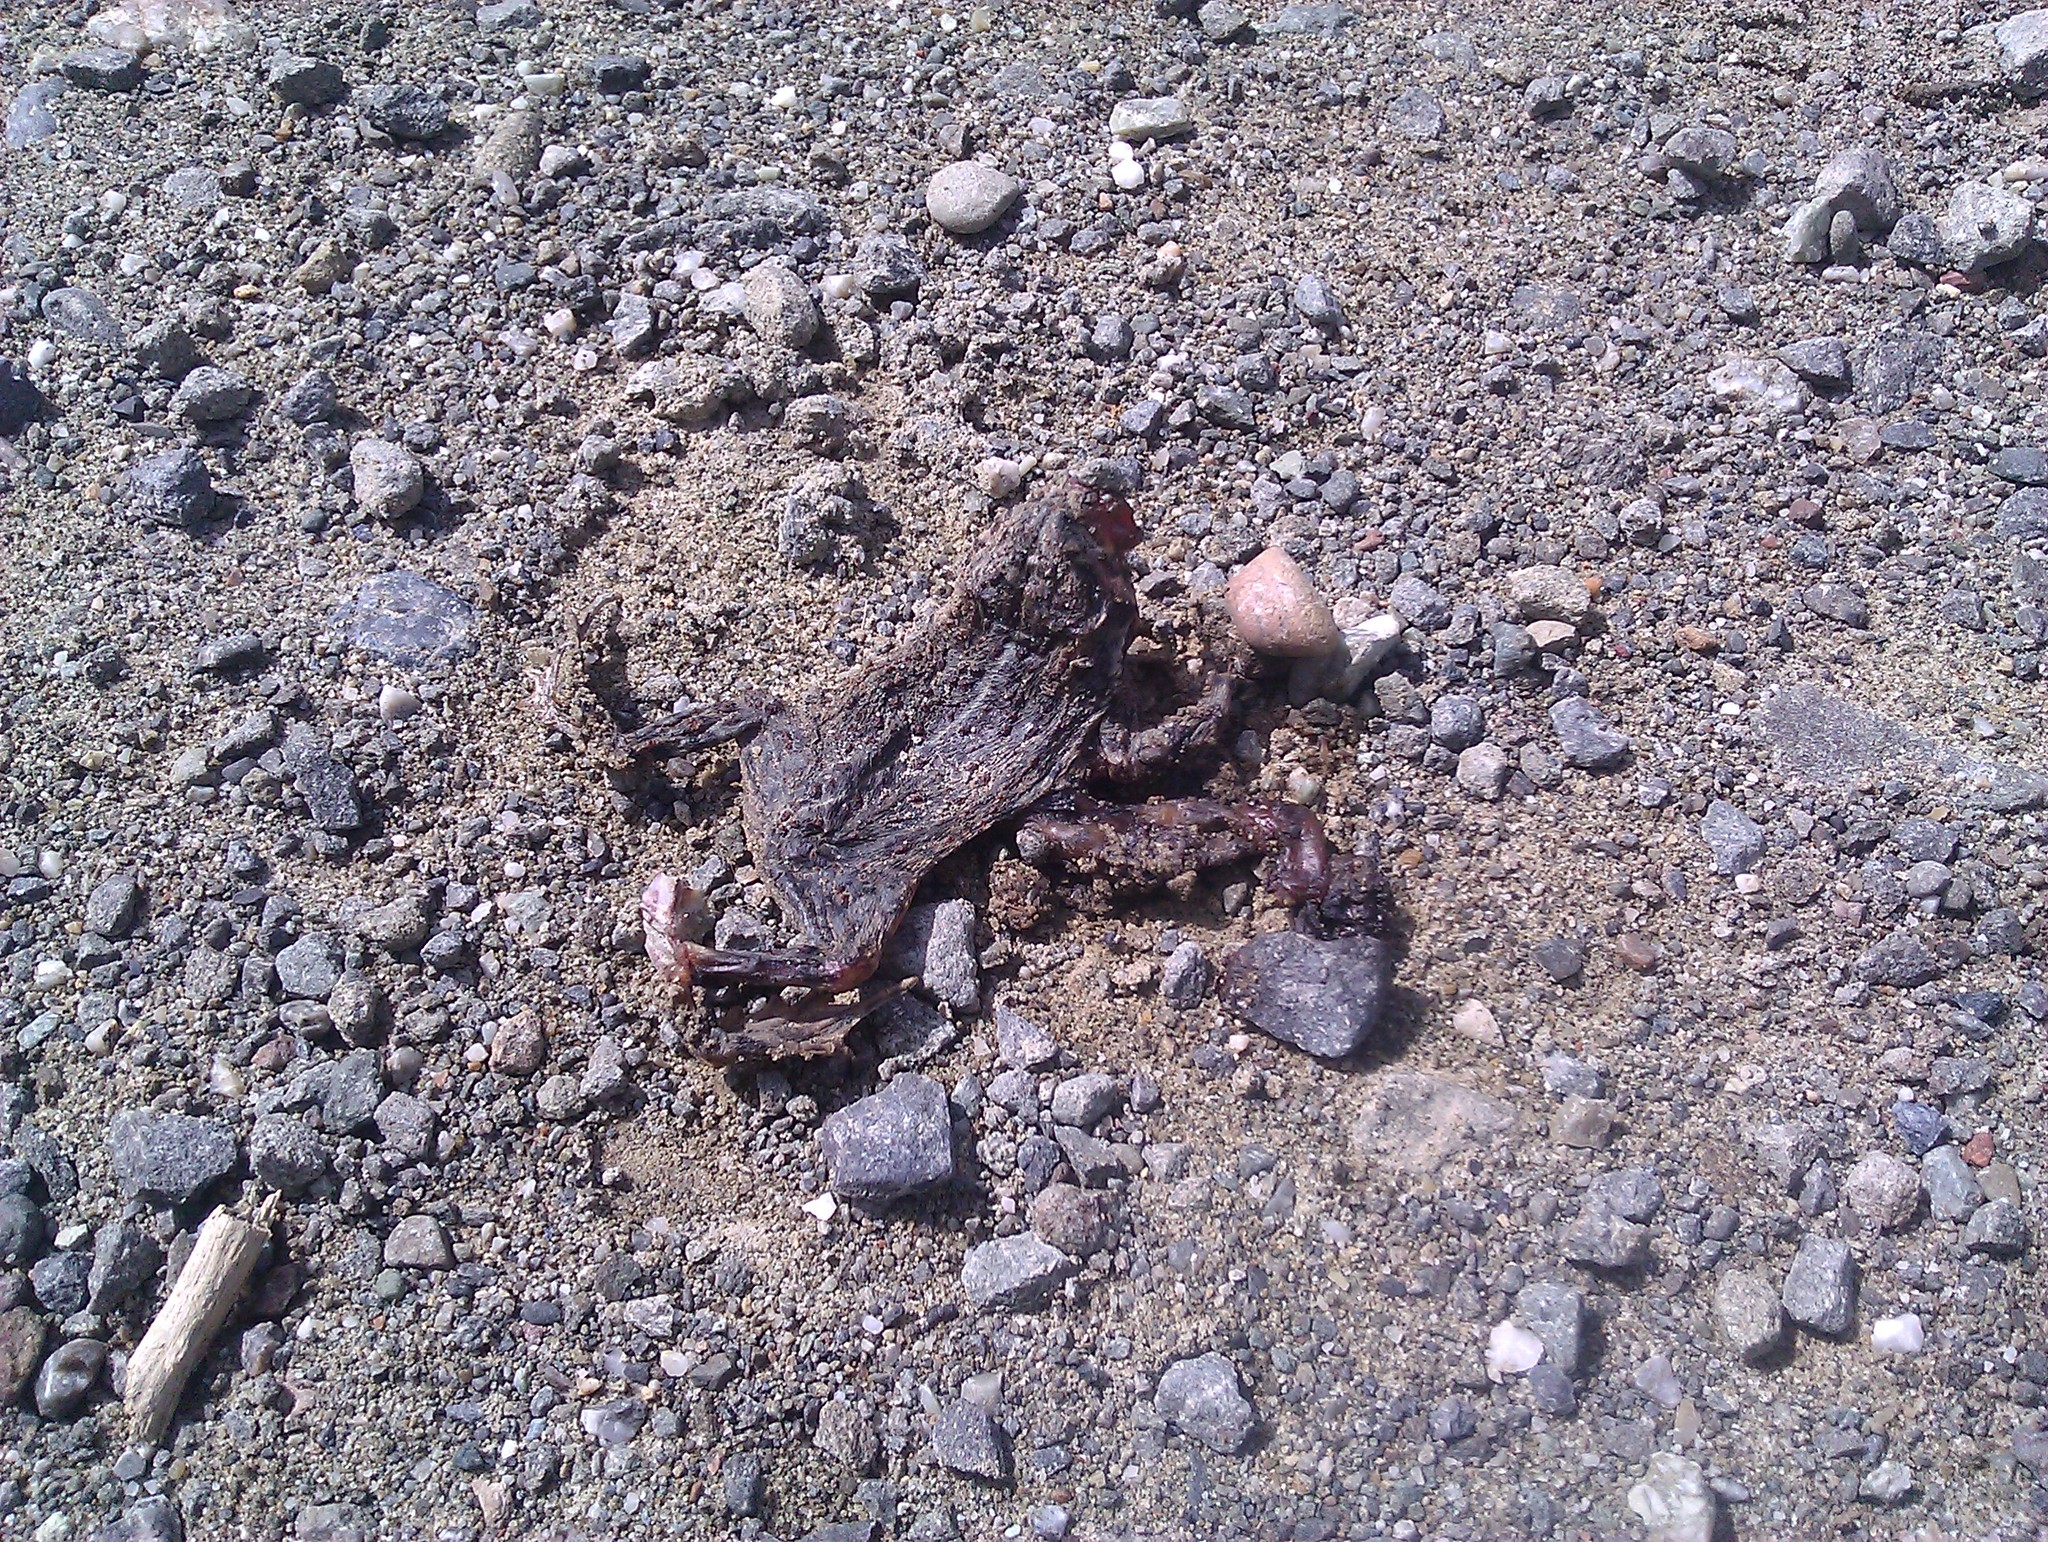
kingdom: Animalia
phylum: Chordata
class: Amphibia
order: Anura
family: Bufonidae
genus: Anaxyrus
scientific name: Anaxyrus boreas
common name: Western toad
